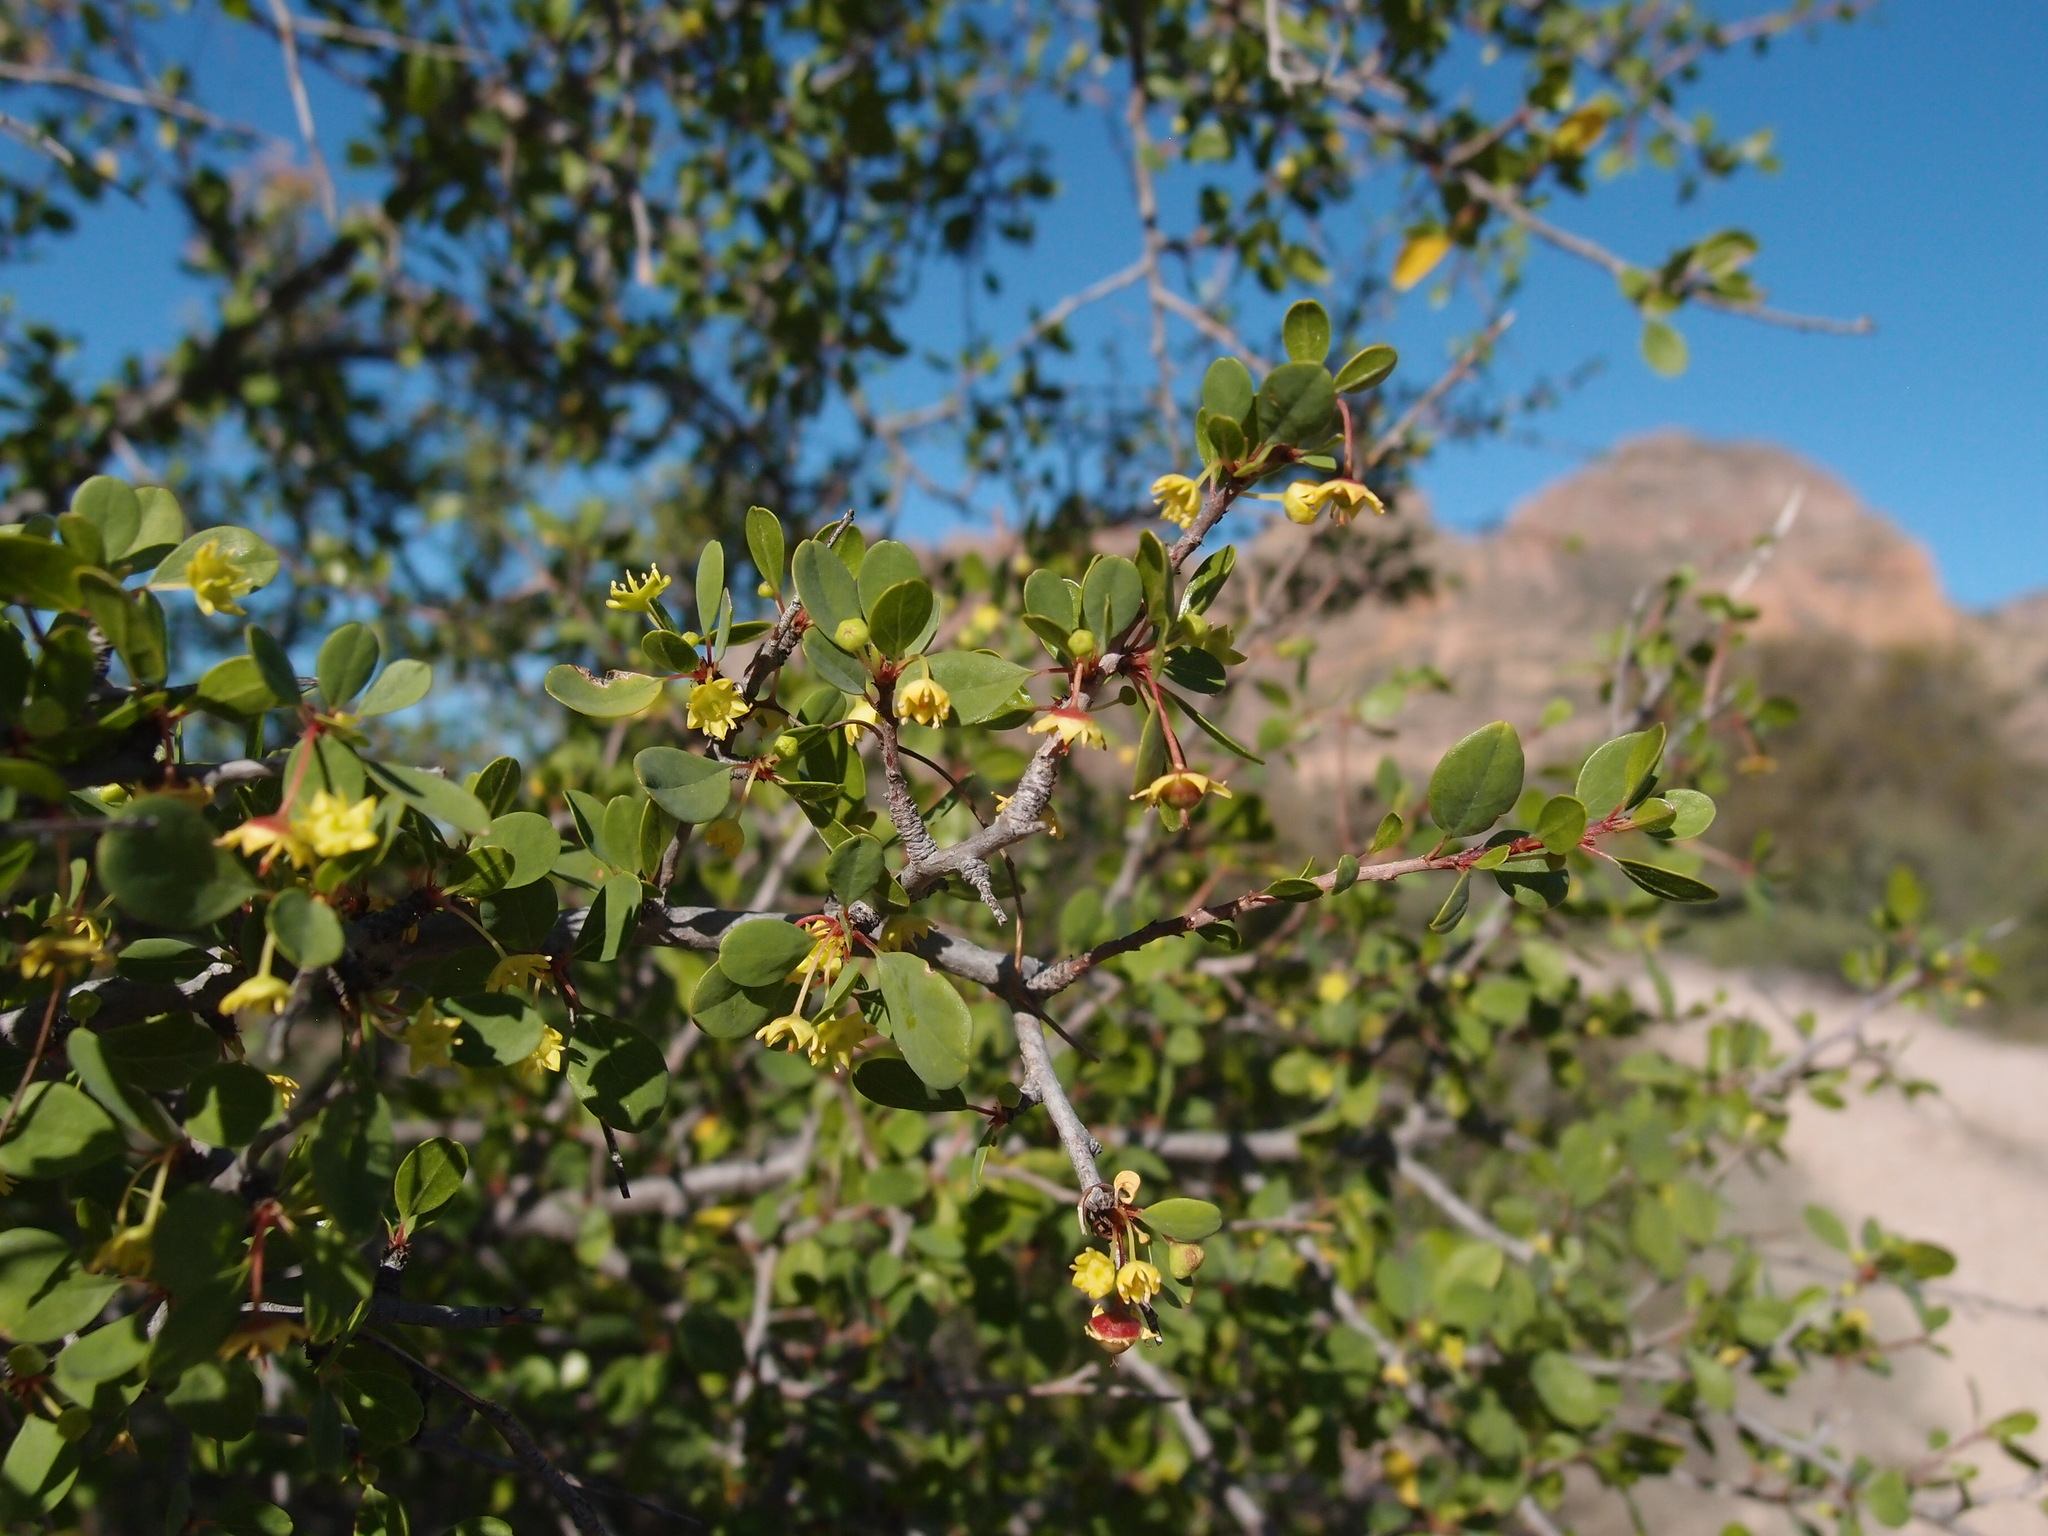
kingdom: Plantae
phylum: Tracheophyta
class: Magnoliopsida
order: Rosales
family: Rhamnaceae
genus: Colubrina
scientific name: Colubrina viridis
